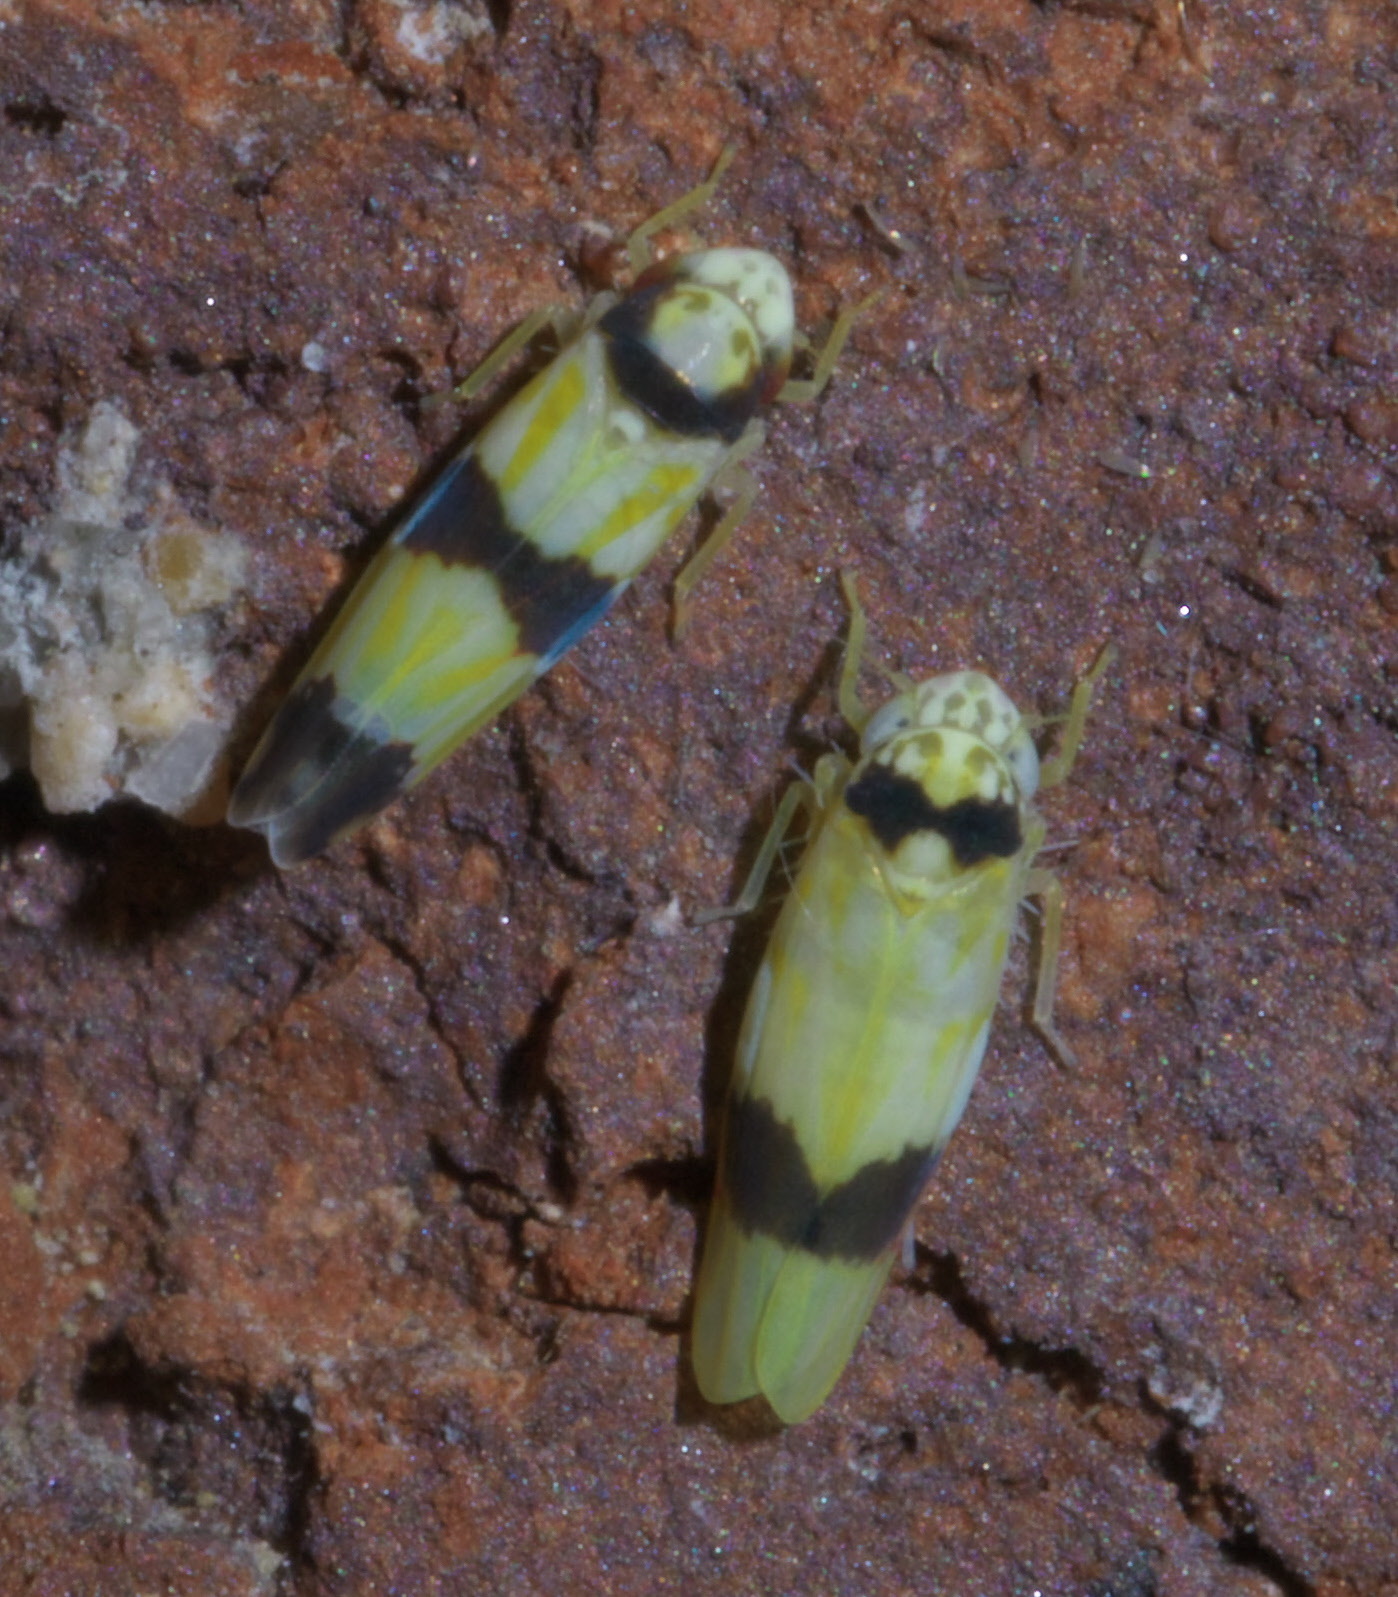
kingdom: Animalia
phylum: Arthropoda
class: Insecta
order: Hemiptera
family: Cicadellidae
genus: Erythroneura
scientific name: Erythroneura calycula
